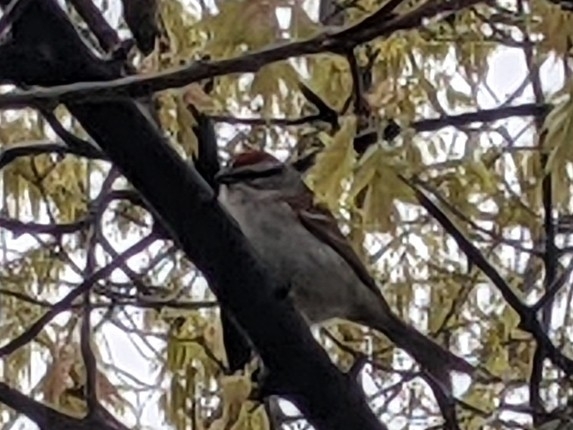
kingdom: Animalia
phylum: Chordata
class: Aves
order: Passeriformes
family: Passerellidae
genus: Spizella
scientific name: Spizella passerina
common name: Chipping sparrow
